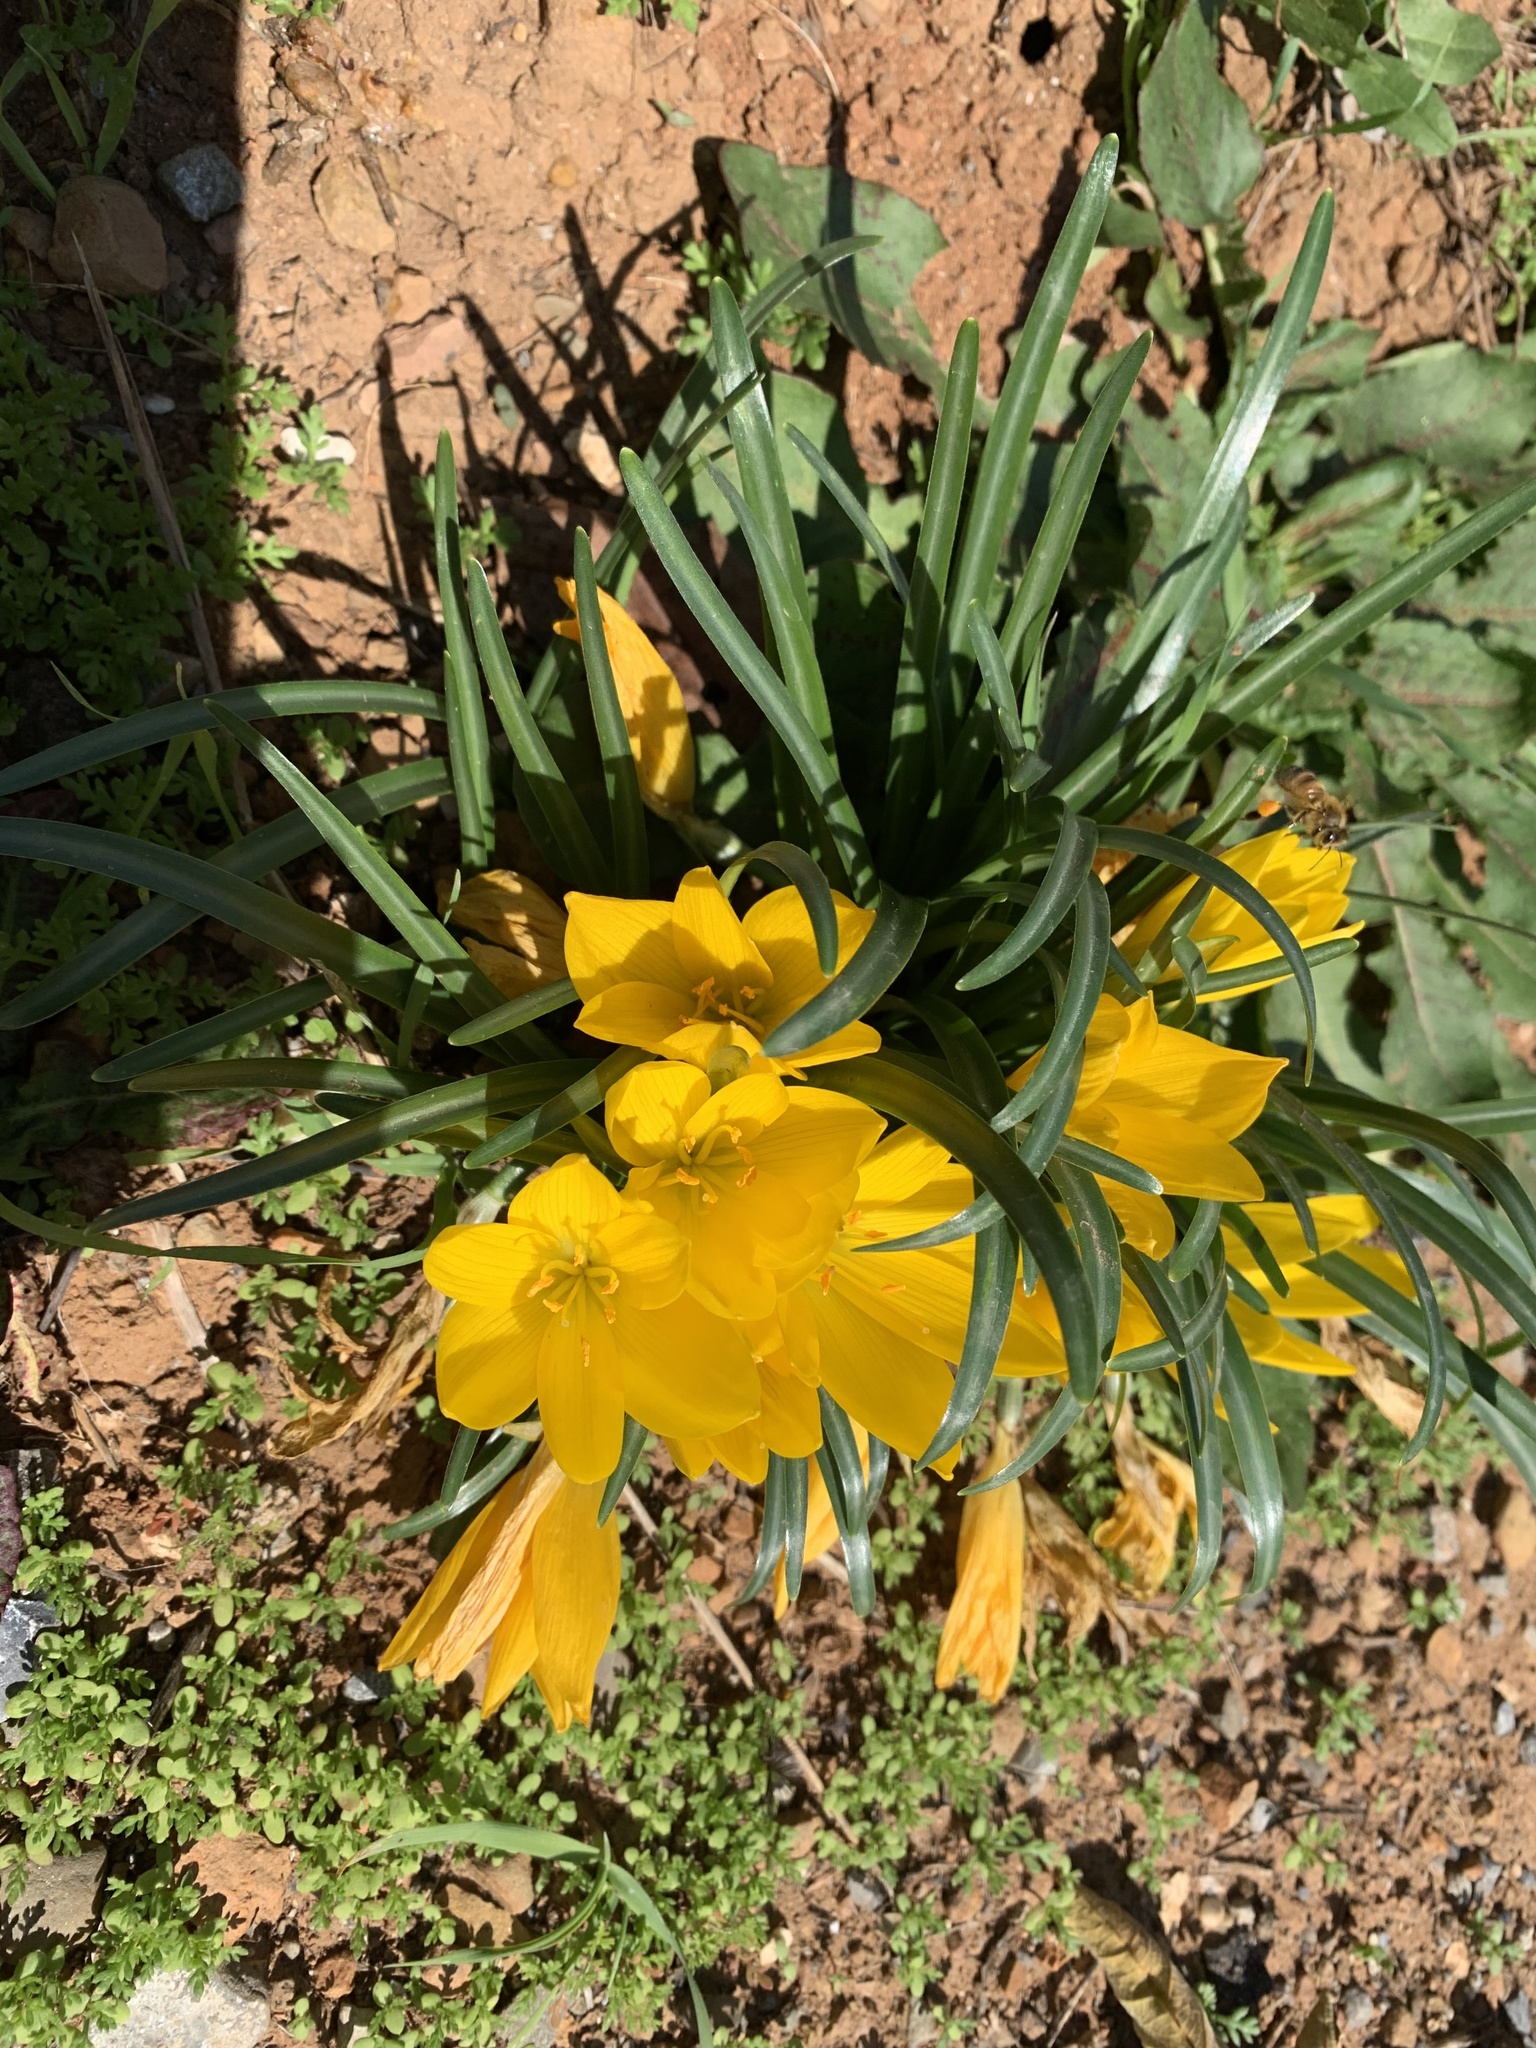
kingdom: Plantae
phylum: Tracheophyta
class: Liliopsida
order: Asparagales
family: Amaryllidaceae
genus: Sternbergia
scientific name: Sternbergia lutea
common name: Winter daffodil
